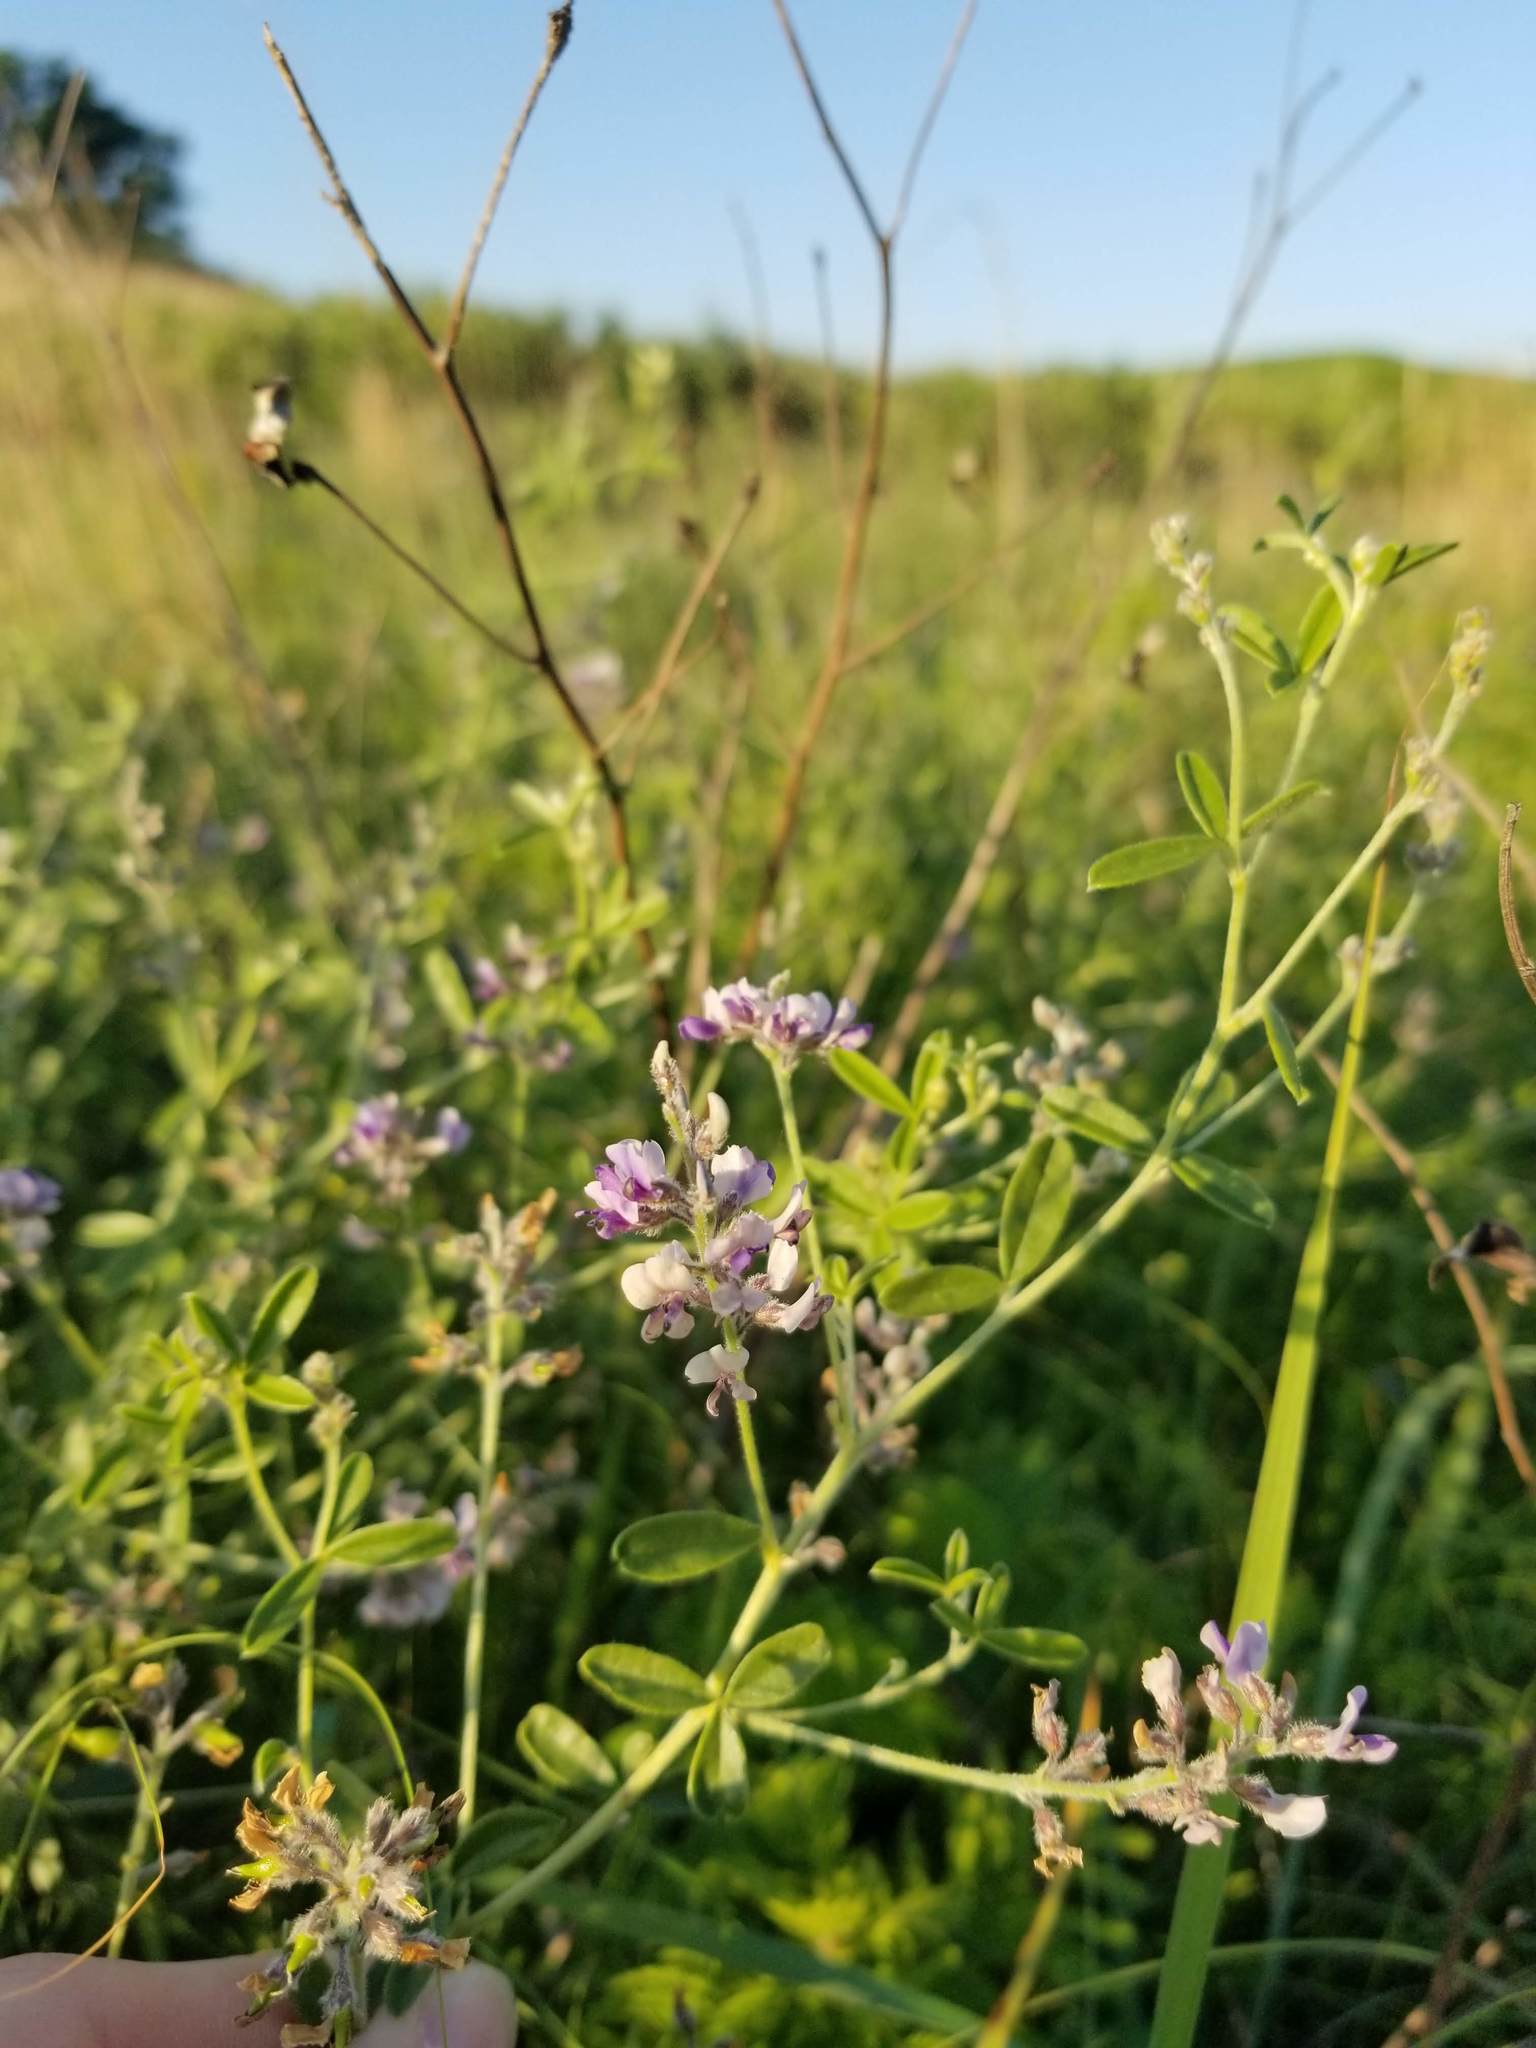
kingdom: Plantae
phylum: Tracheophyta
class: Magnoliopsida
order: Fabales
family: Fabaceae
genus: Pediomelum
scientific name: Pediomelum tenuiflorum
